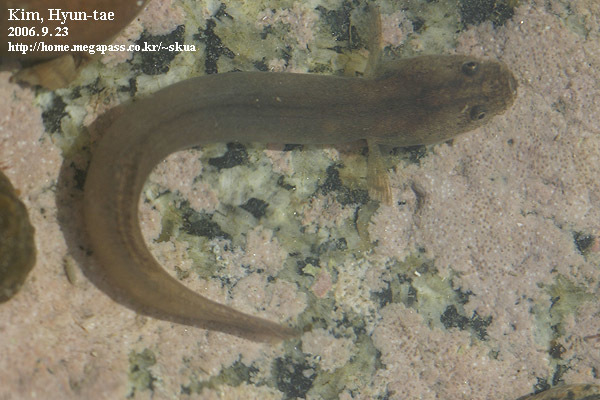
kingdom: Animalia
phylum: Chordata
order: Perciformes
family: Gobiidae
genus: Luciogobius
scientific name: Luciogobius guttatus
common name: Flat-headed goby
